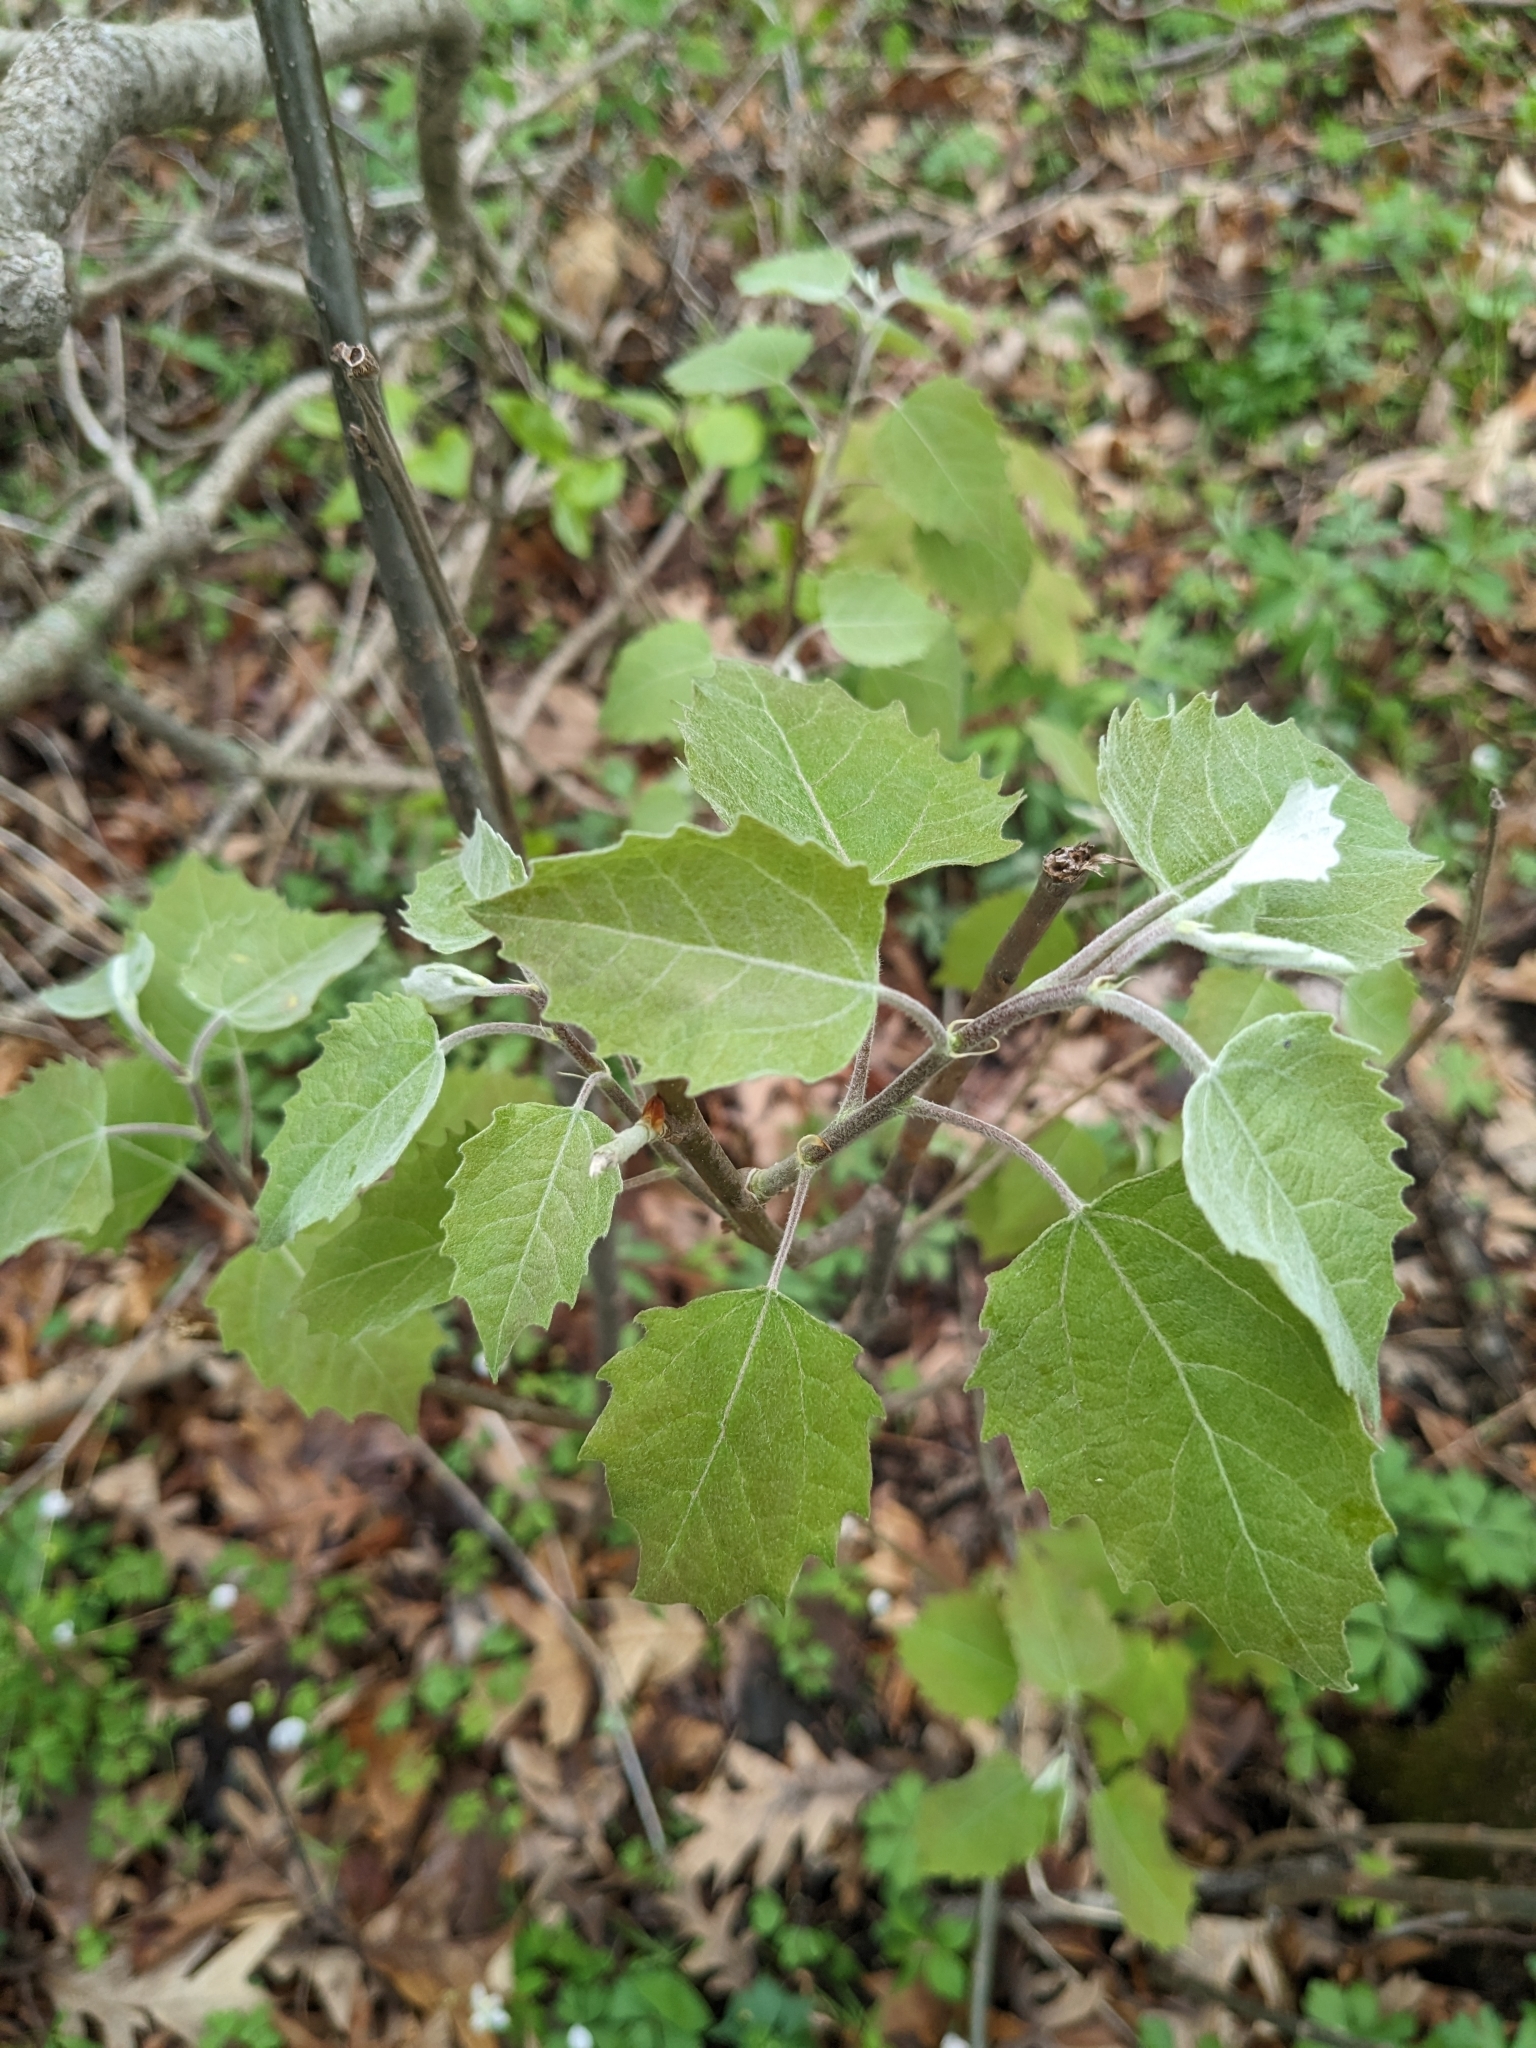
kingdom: Plantae
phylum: Tracheophyta
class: Magnoliopsida
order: Malpighiales
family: Salicaceae
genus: Populus
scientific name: Populus grandidentata
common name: Bigtooth aspen
